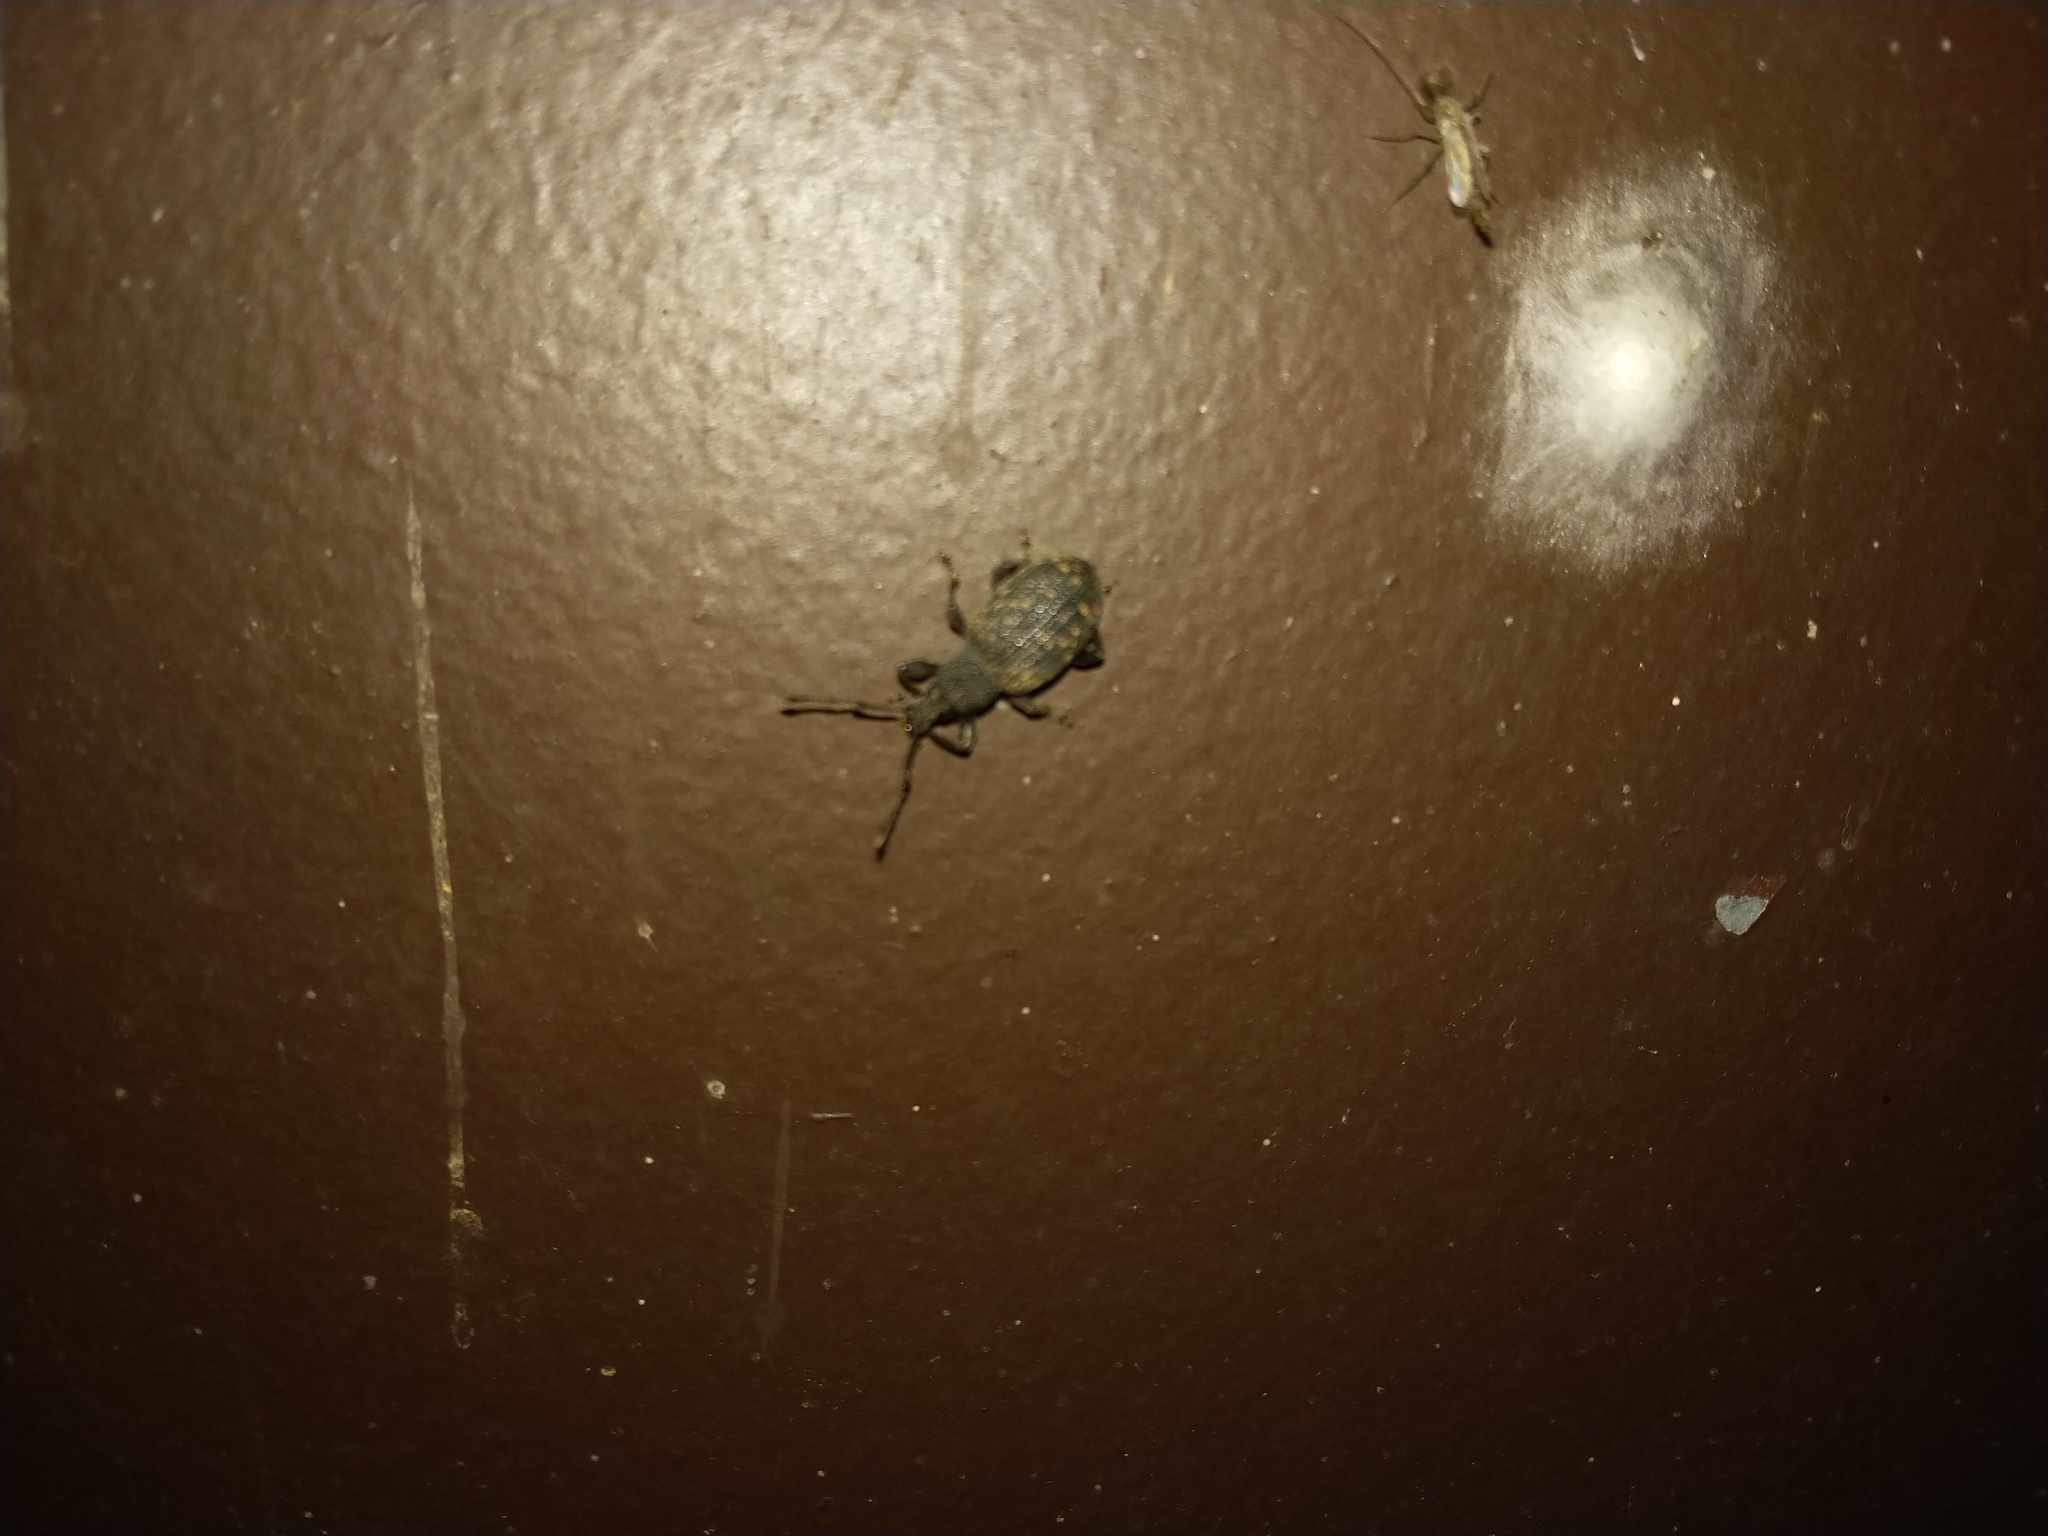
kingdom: Animalia
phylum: Arthropoda
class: Insecta
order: Coleoptera
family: Curculionidae
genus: Otiorhynchus
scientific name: Otiorhynchus sulcatus
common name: Black vine weevil
